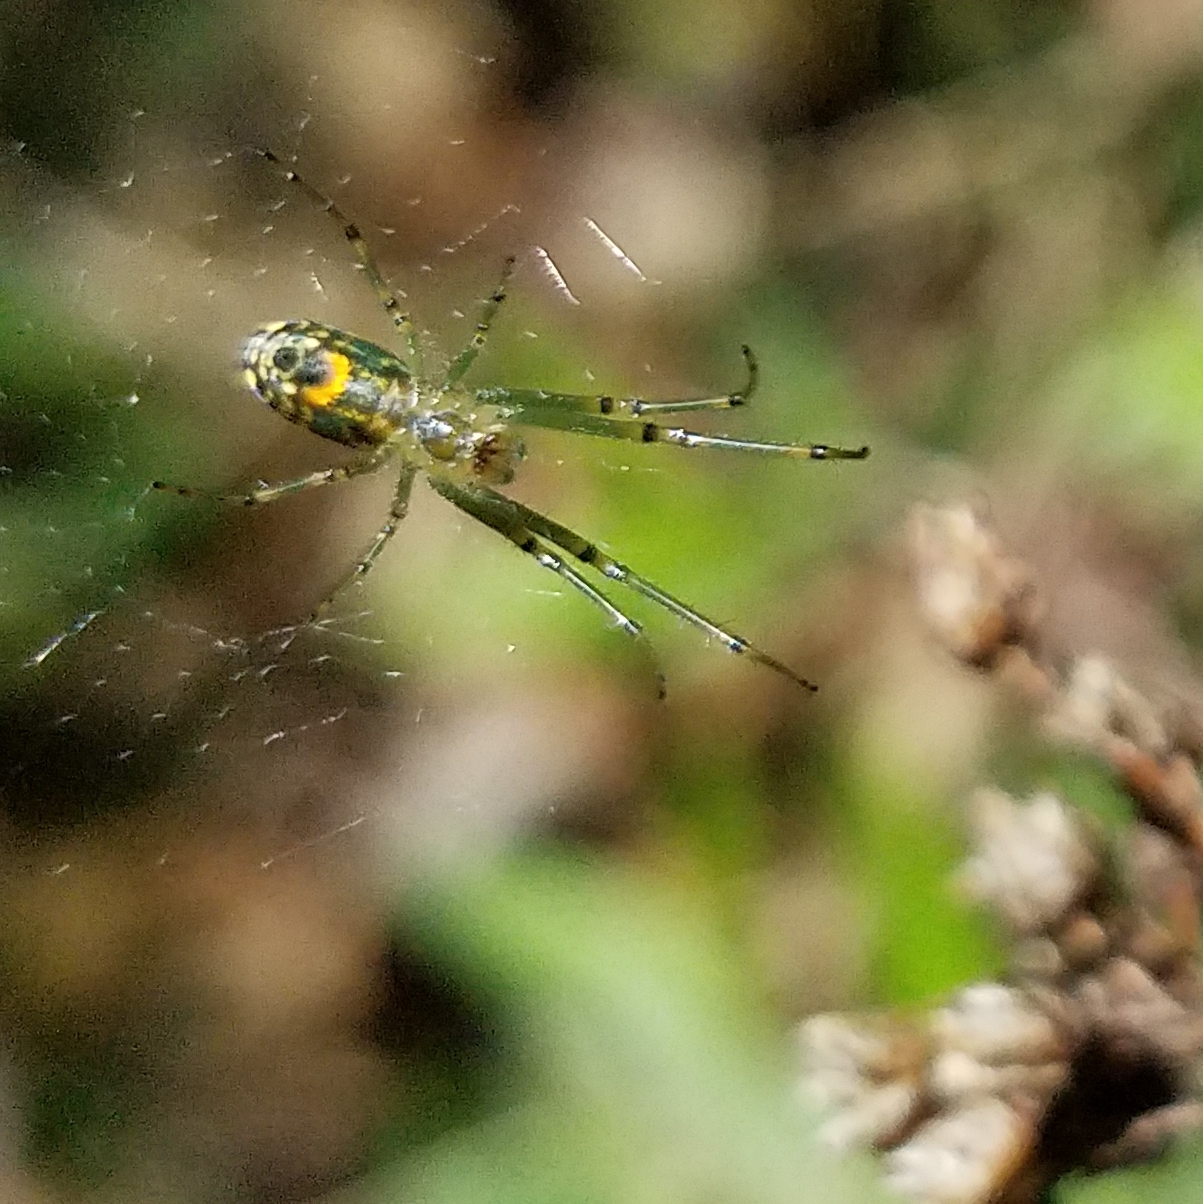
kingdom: Animalia
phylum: Arthropoda
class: Arachnida
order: Araneae
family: Tetragnathidae
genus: Leucauge
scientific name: Leucauge venusta
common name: Longjawed orb weavers
